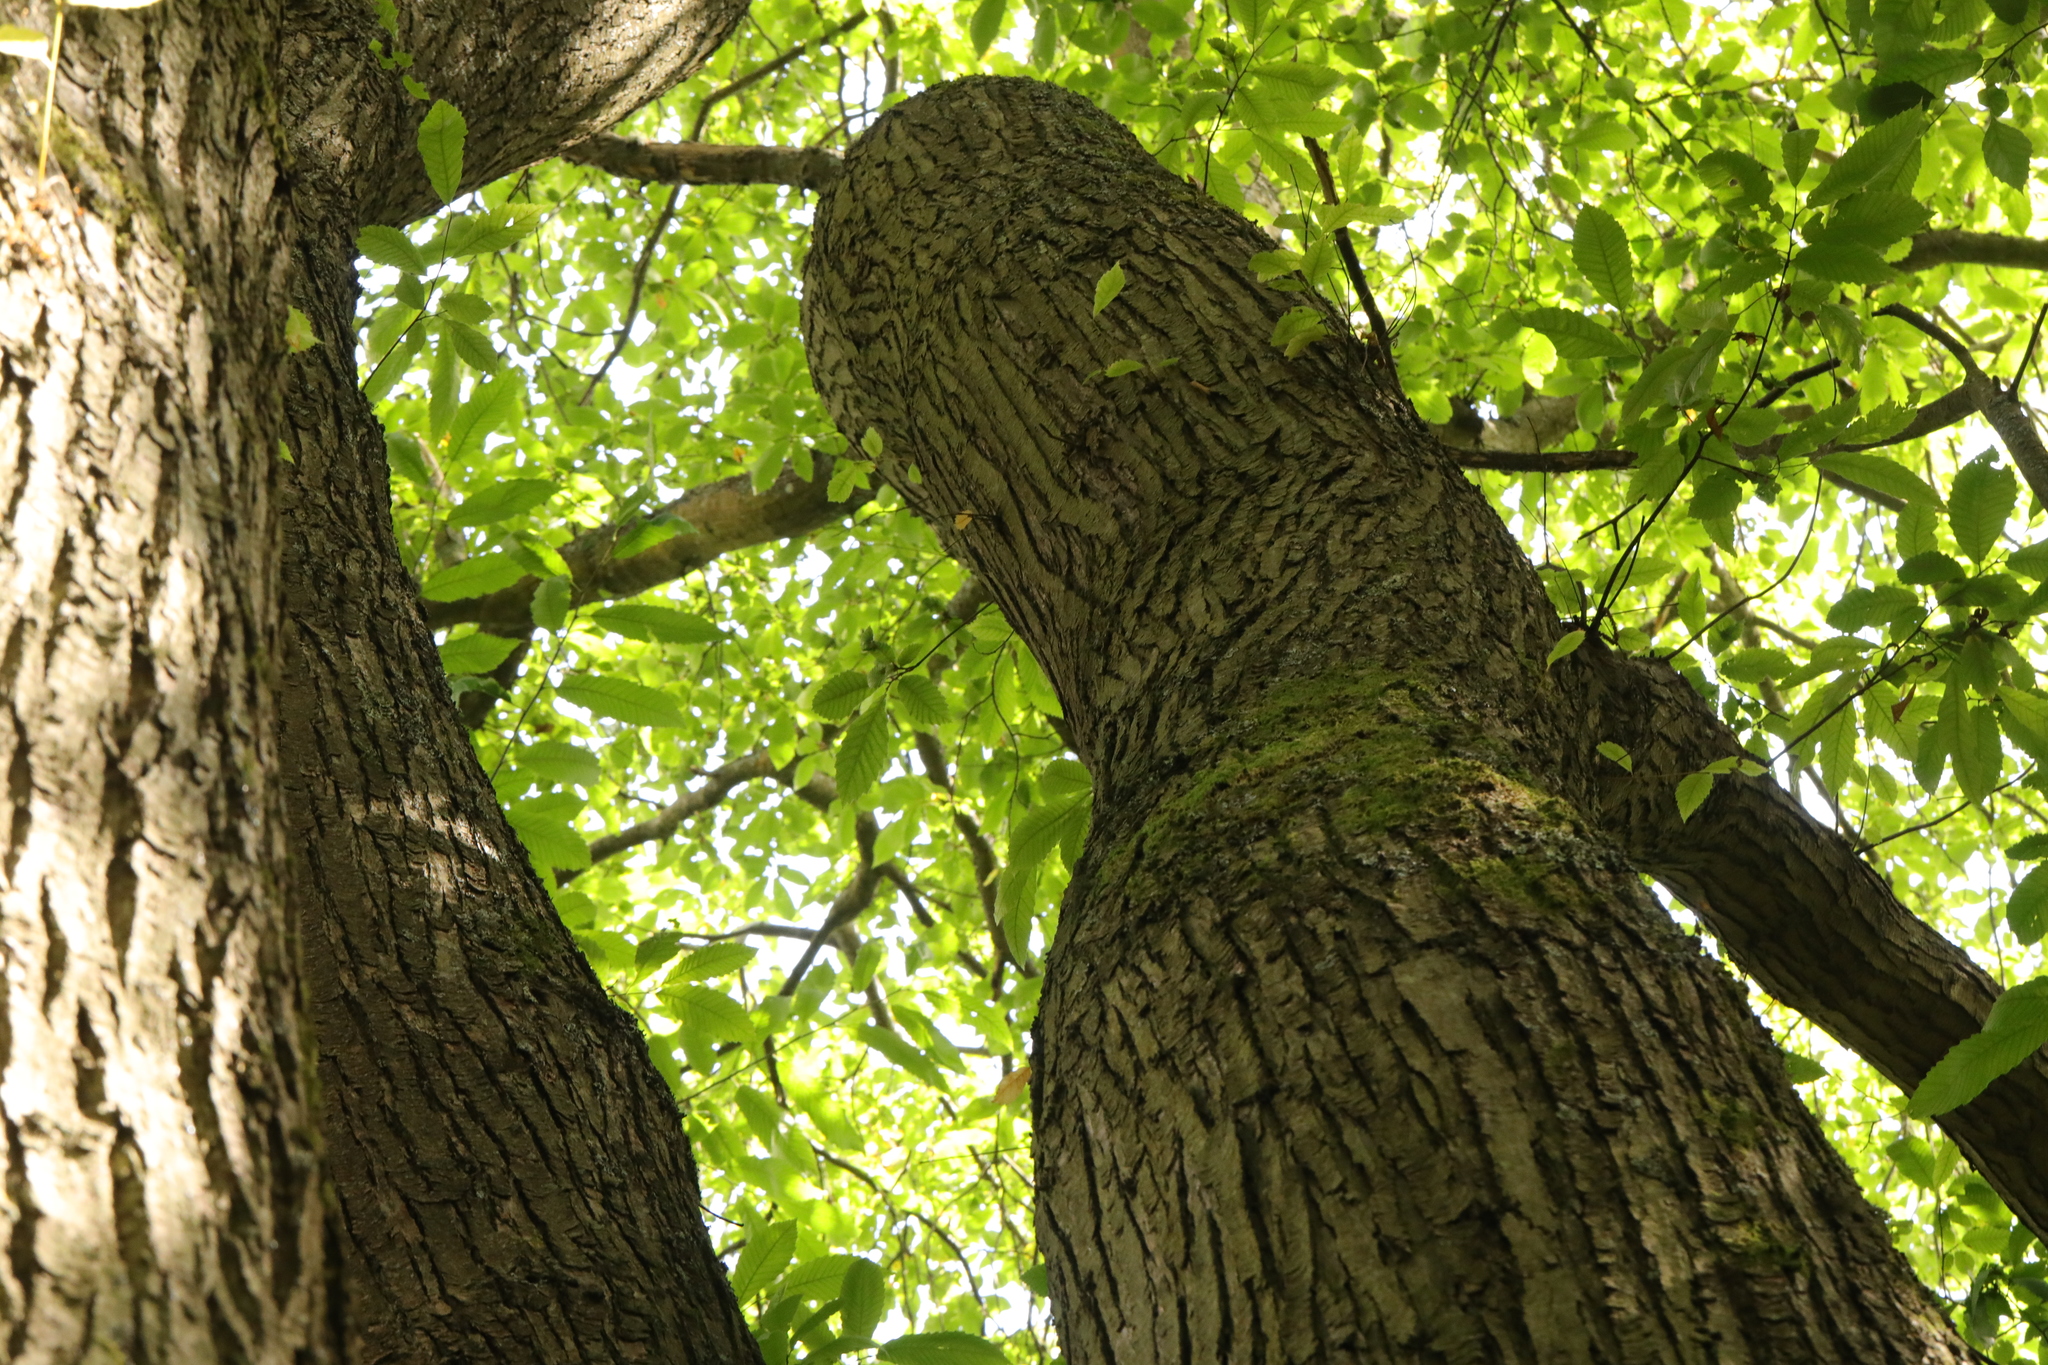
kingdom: Plantae
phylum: Tracheophyta
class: Magnoliopsida
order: Fagales
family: Fagaceae
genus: Castanea
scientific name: Castanea sativa
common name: Sweet chestnut
